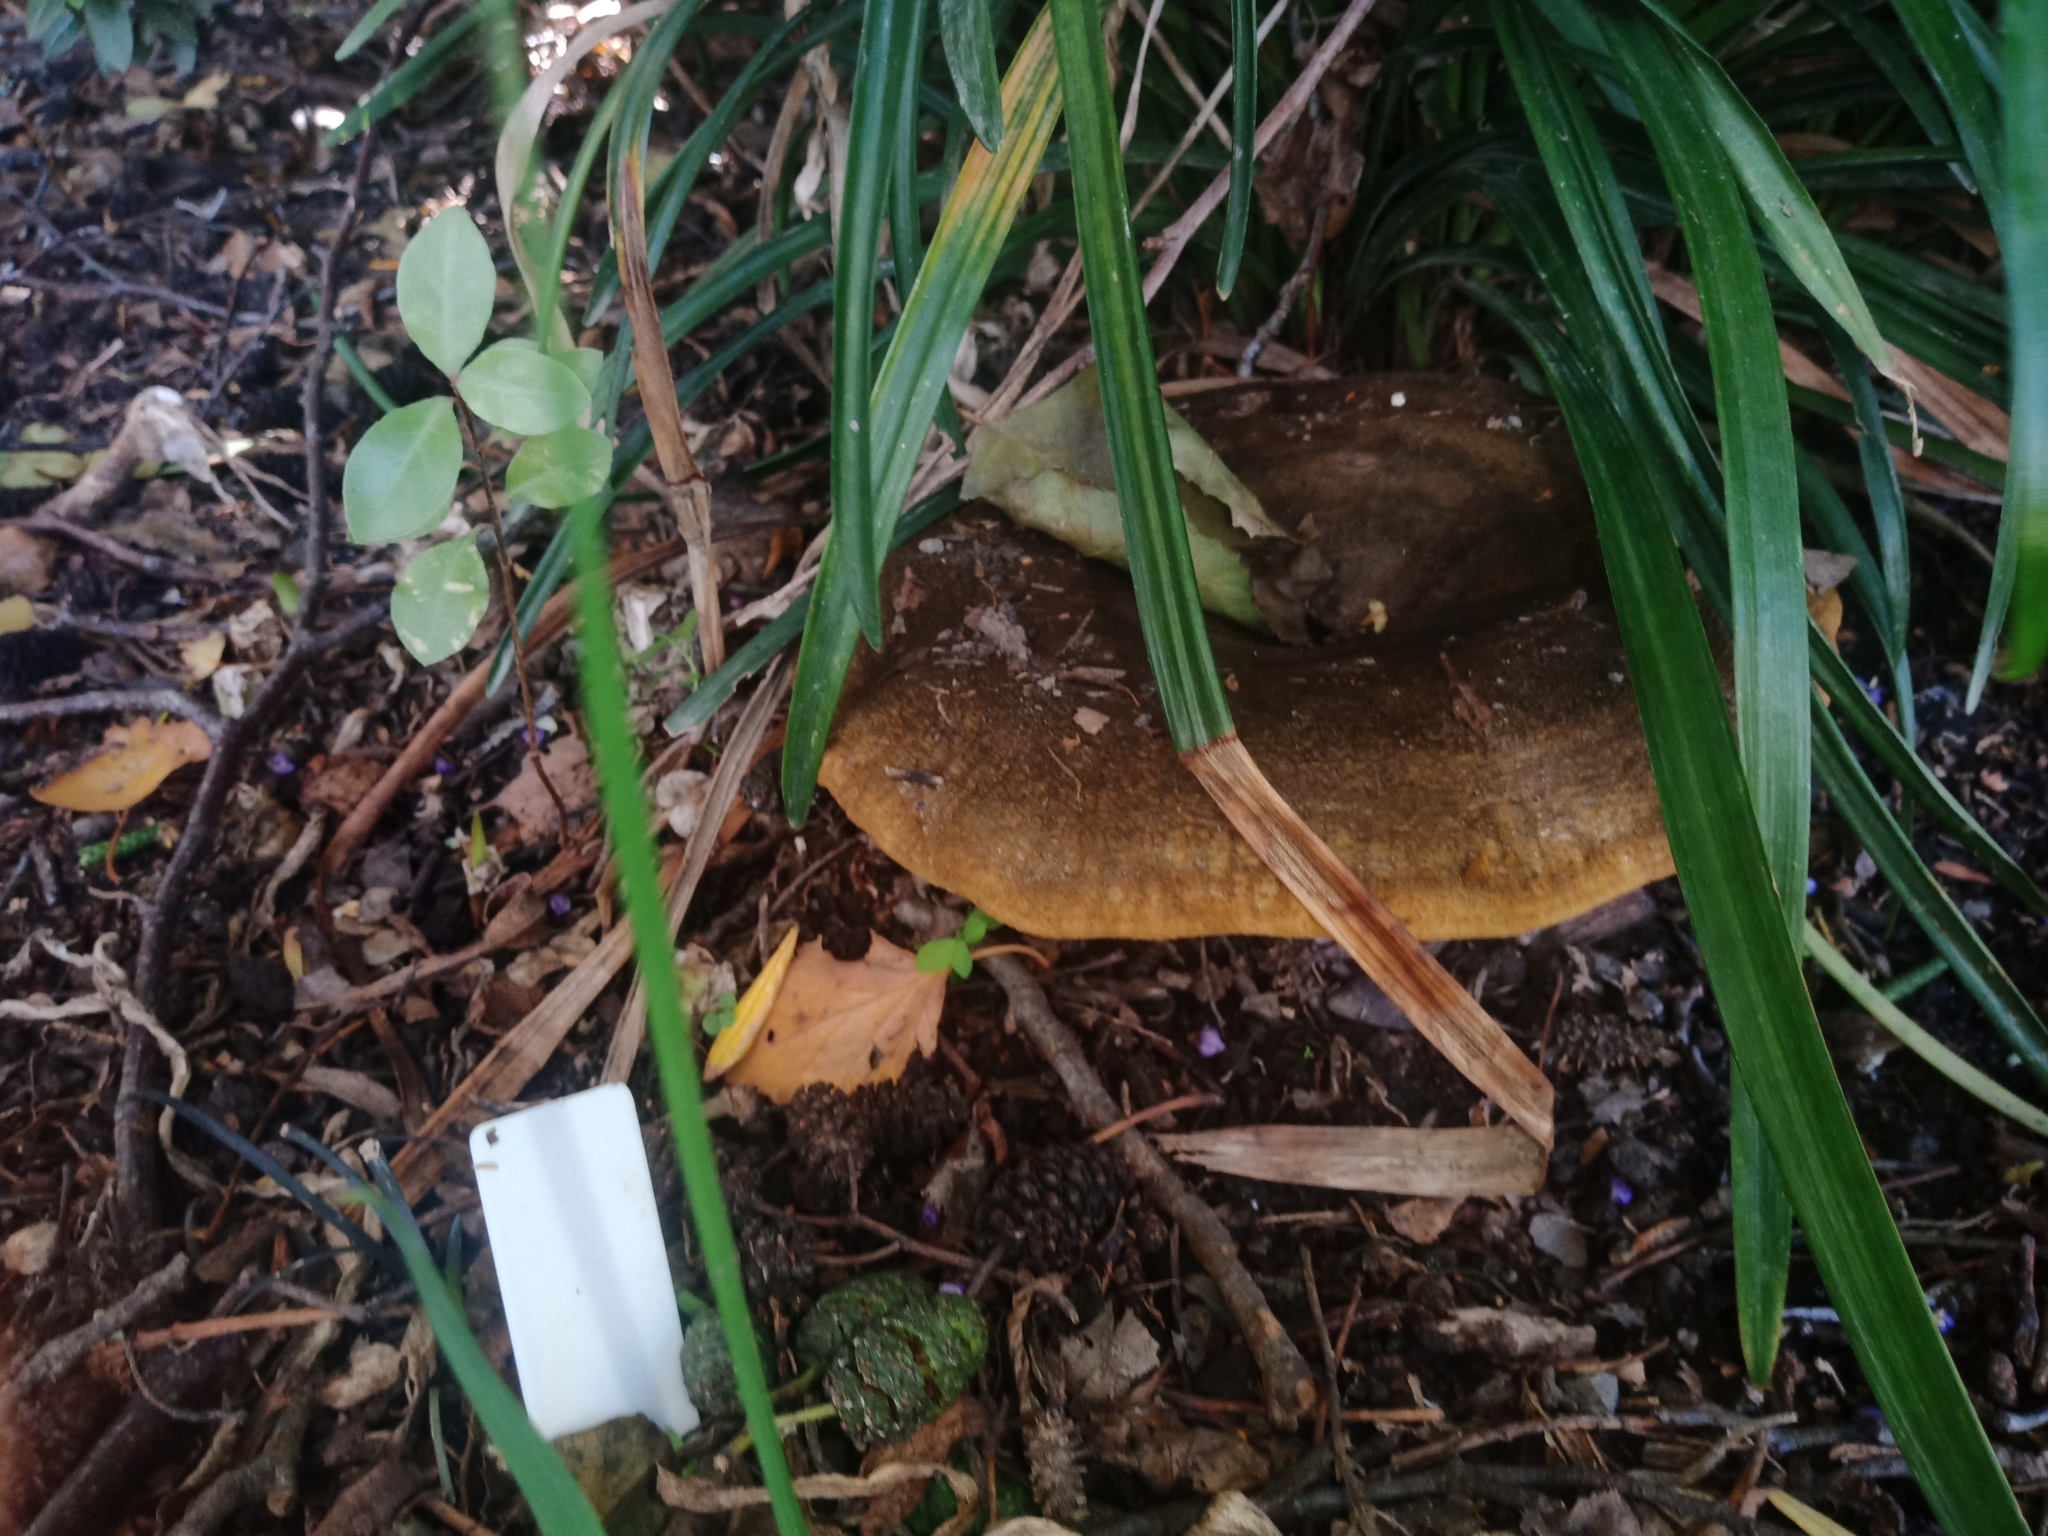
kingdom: Fungi
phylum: Basidiomycota
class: Agaricomycetes
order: Russulales
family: Russulaceae
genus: Lactarius
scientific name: Lactarius turpis
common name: Ugly milk-cap
